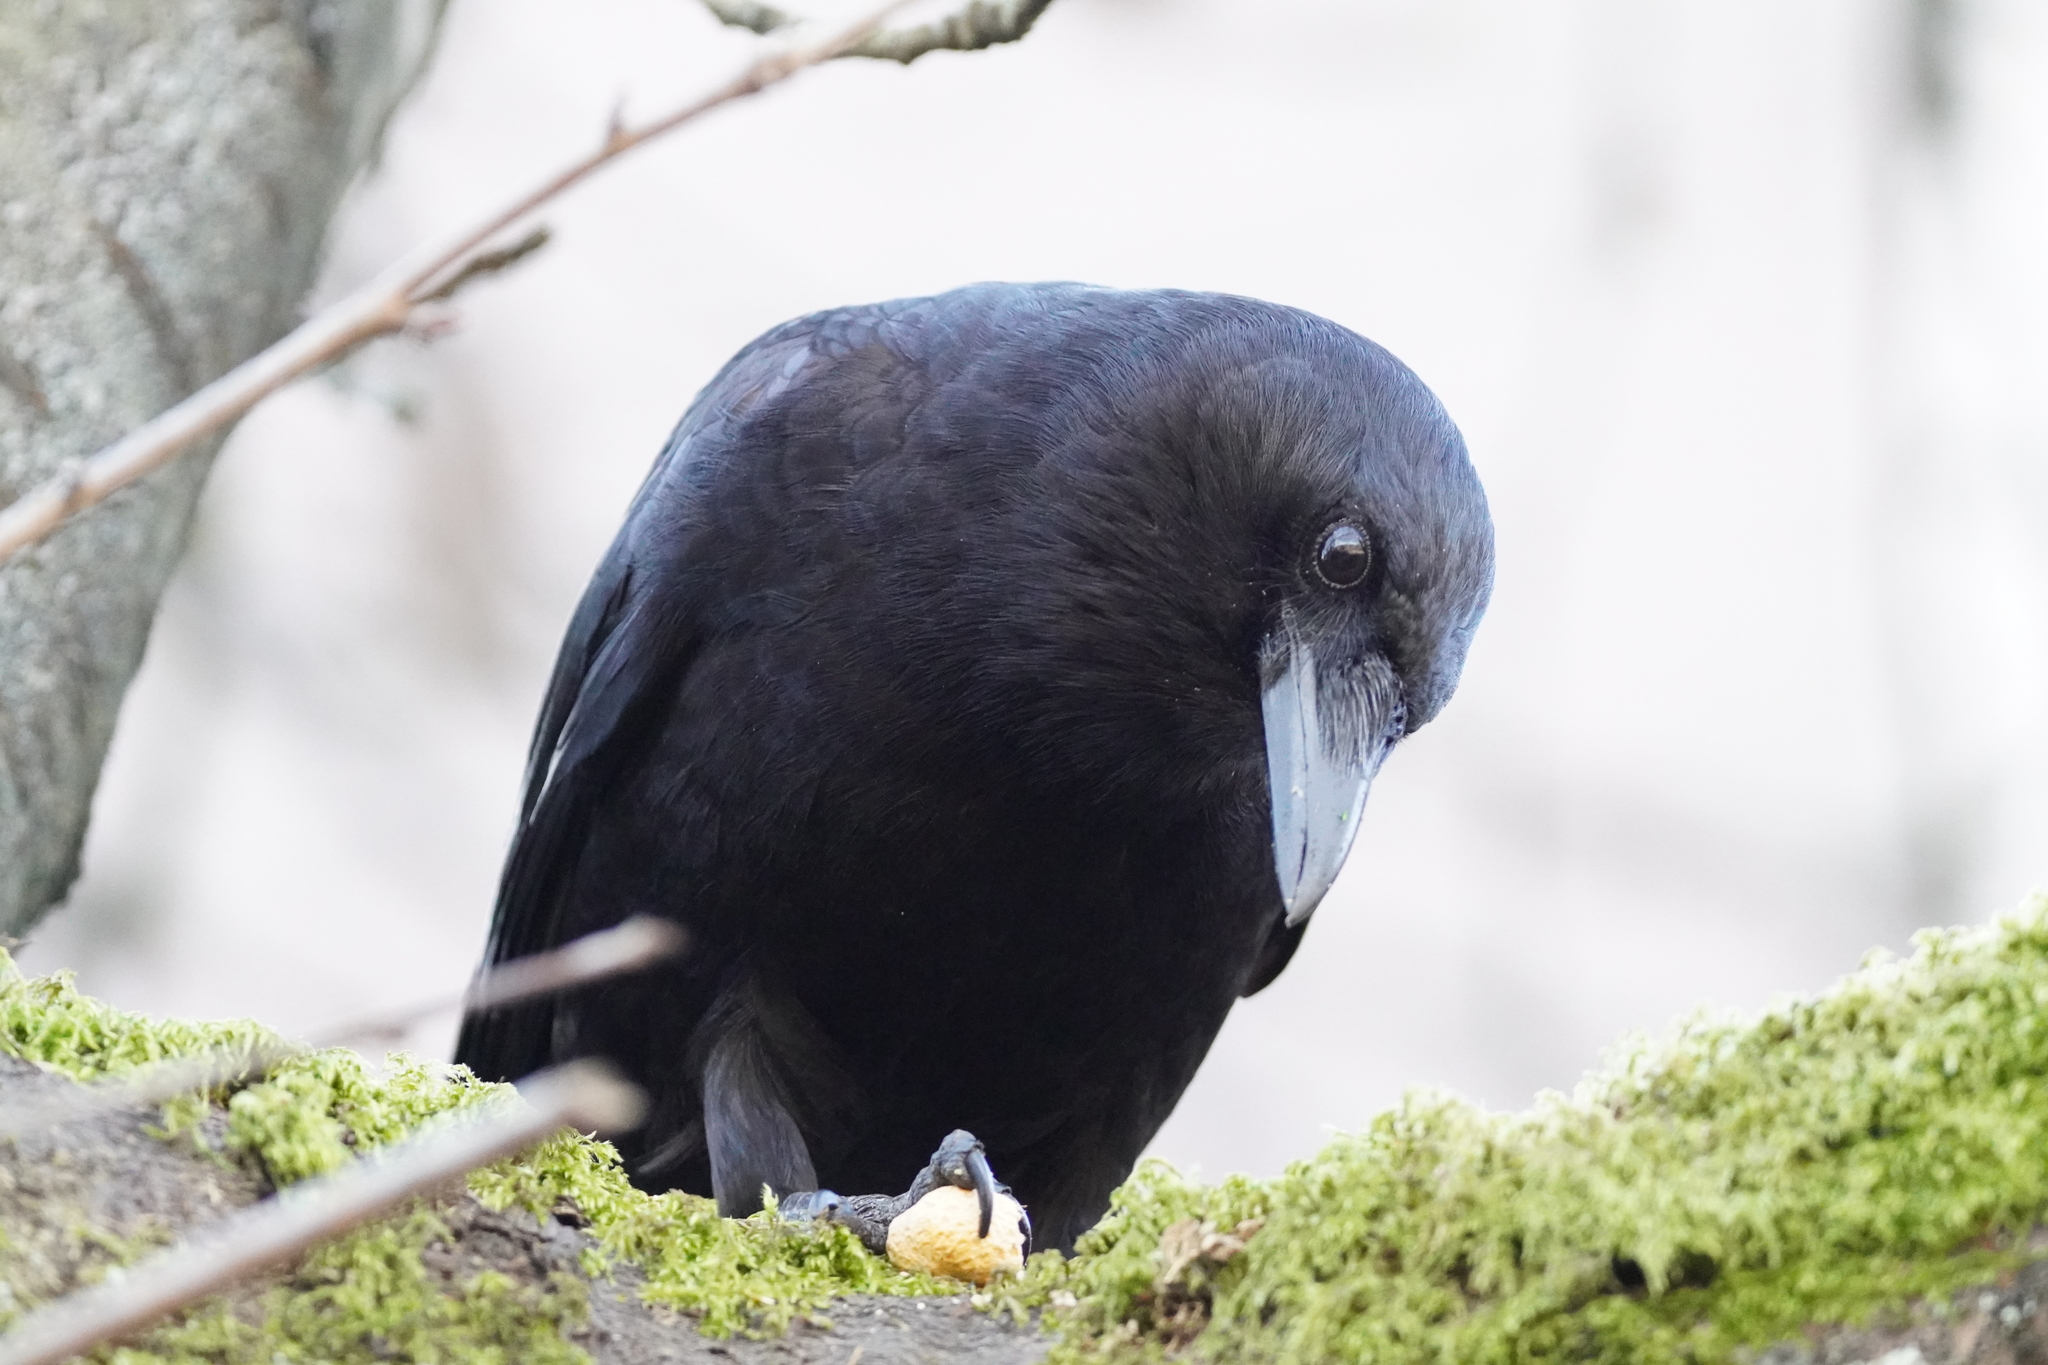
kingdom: Animalia
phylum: Chordata
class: Aves
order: Passeriformes
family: Corvidae
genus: Corvus
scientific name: Corvus brachyrhynchos
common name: American crow
